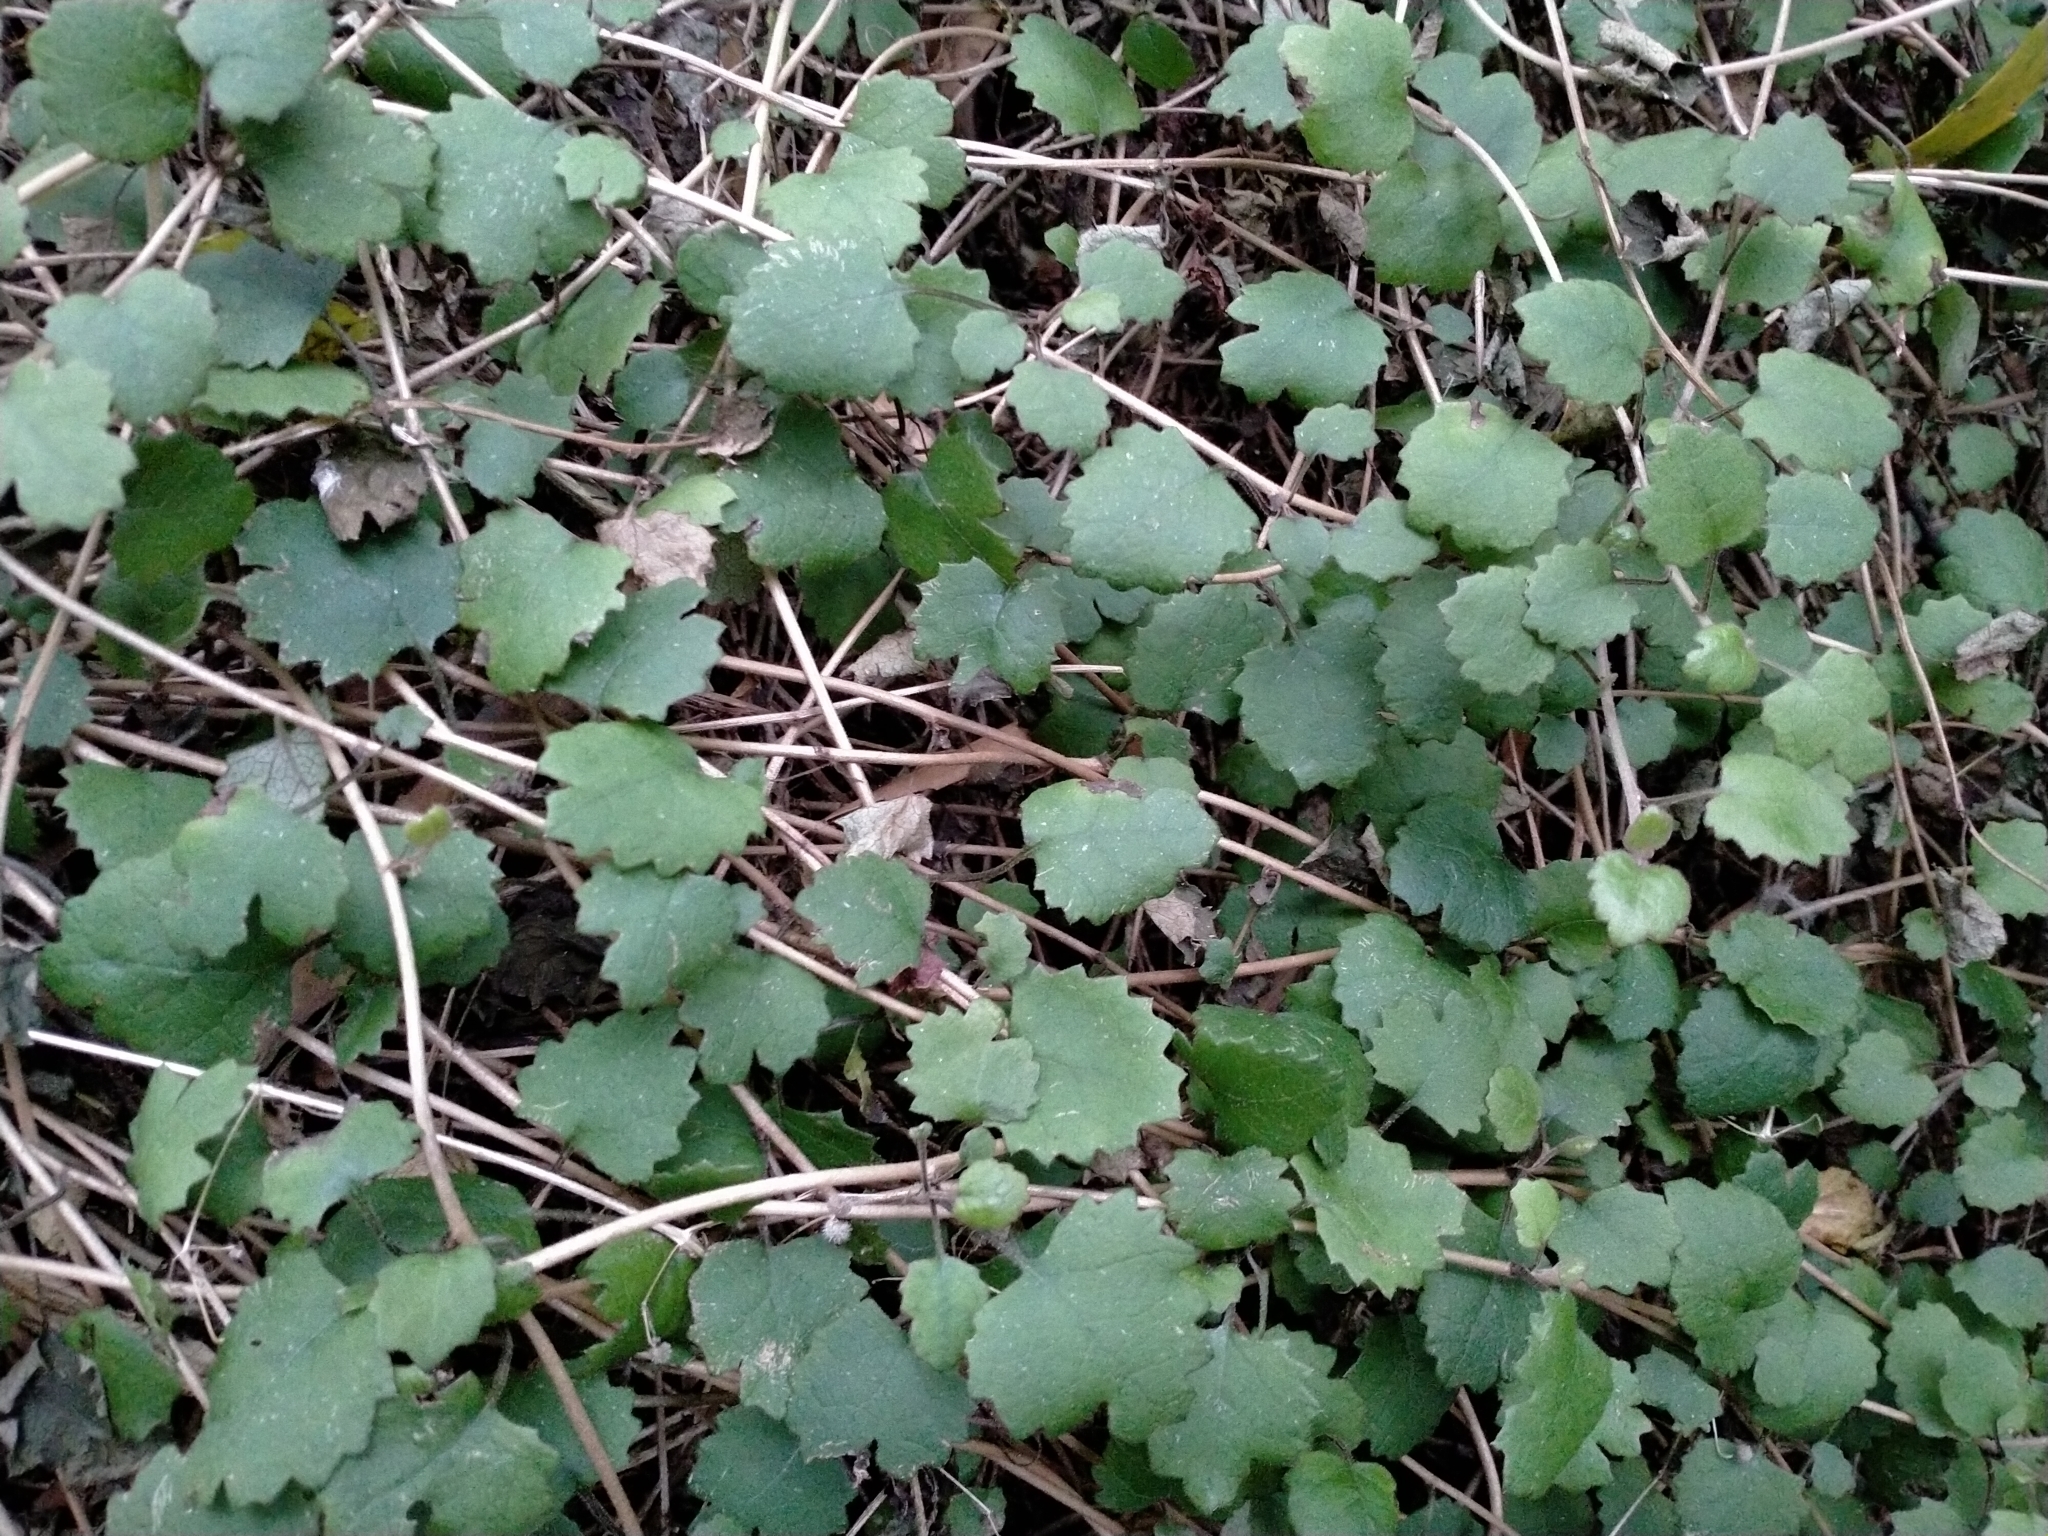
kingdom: Plantae
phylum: Tracheophyta
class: Magnoliopsida
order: Asterales
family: Asteraceae
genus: Brachyglottis
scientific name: Brachyglottis sciadophila
